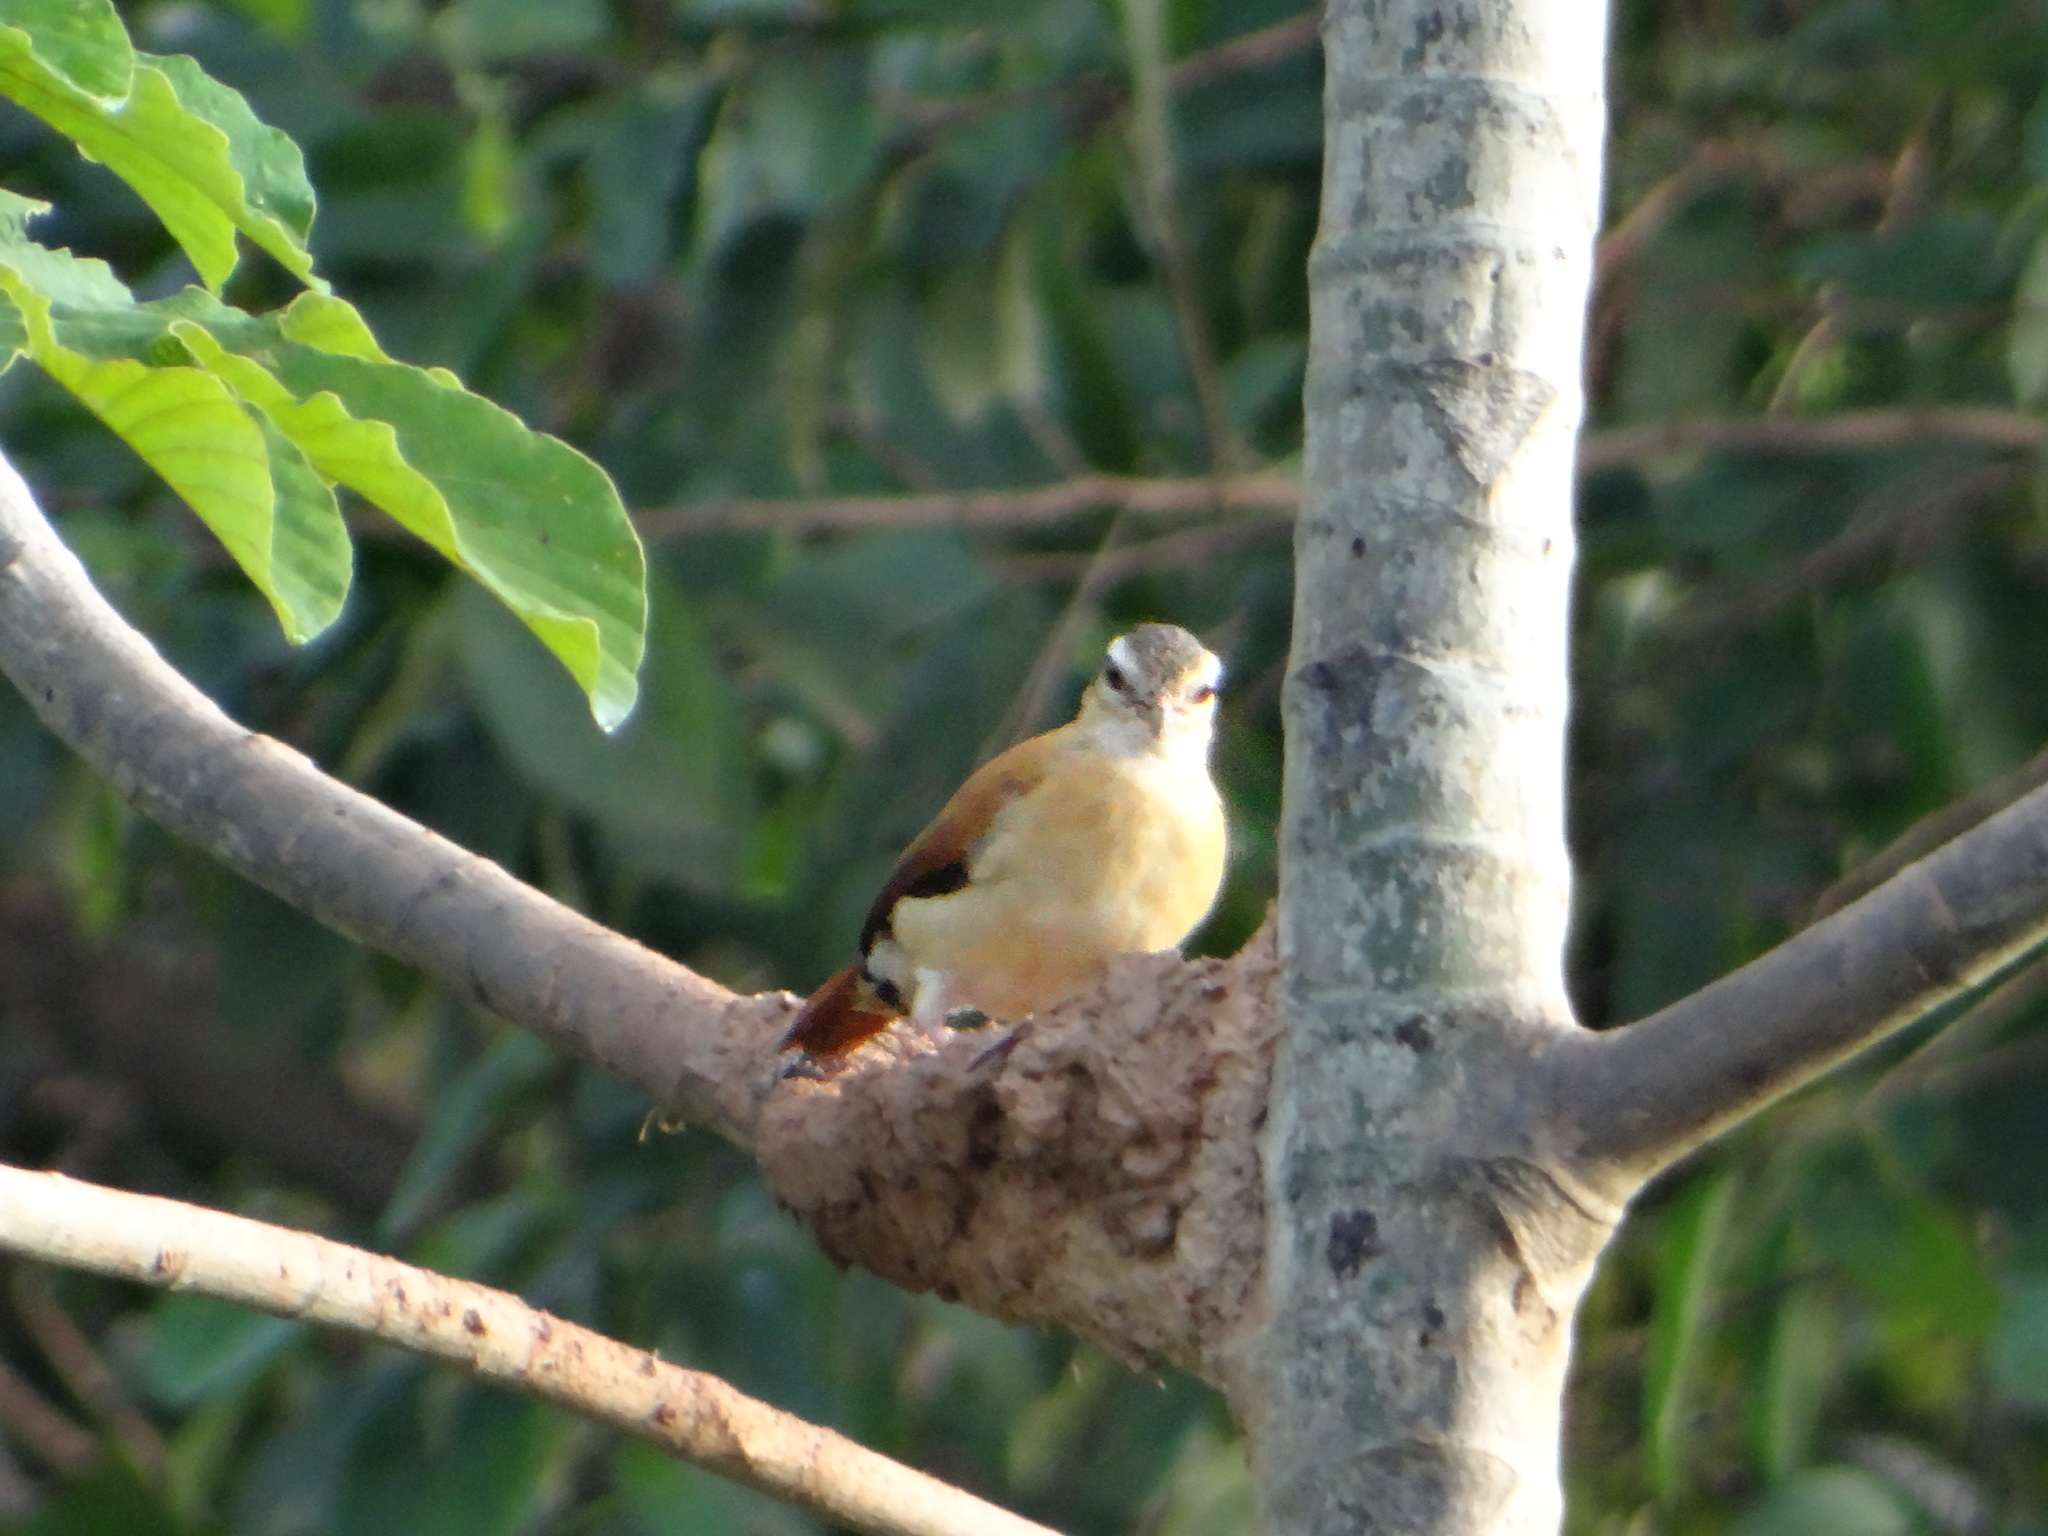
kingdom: Animalia
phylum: Chordata
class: Aves
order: Passeriformes
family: Furnariidae
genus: Furnarius
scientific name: Furnarius leucopus
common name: Pale-legged hornero
